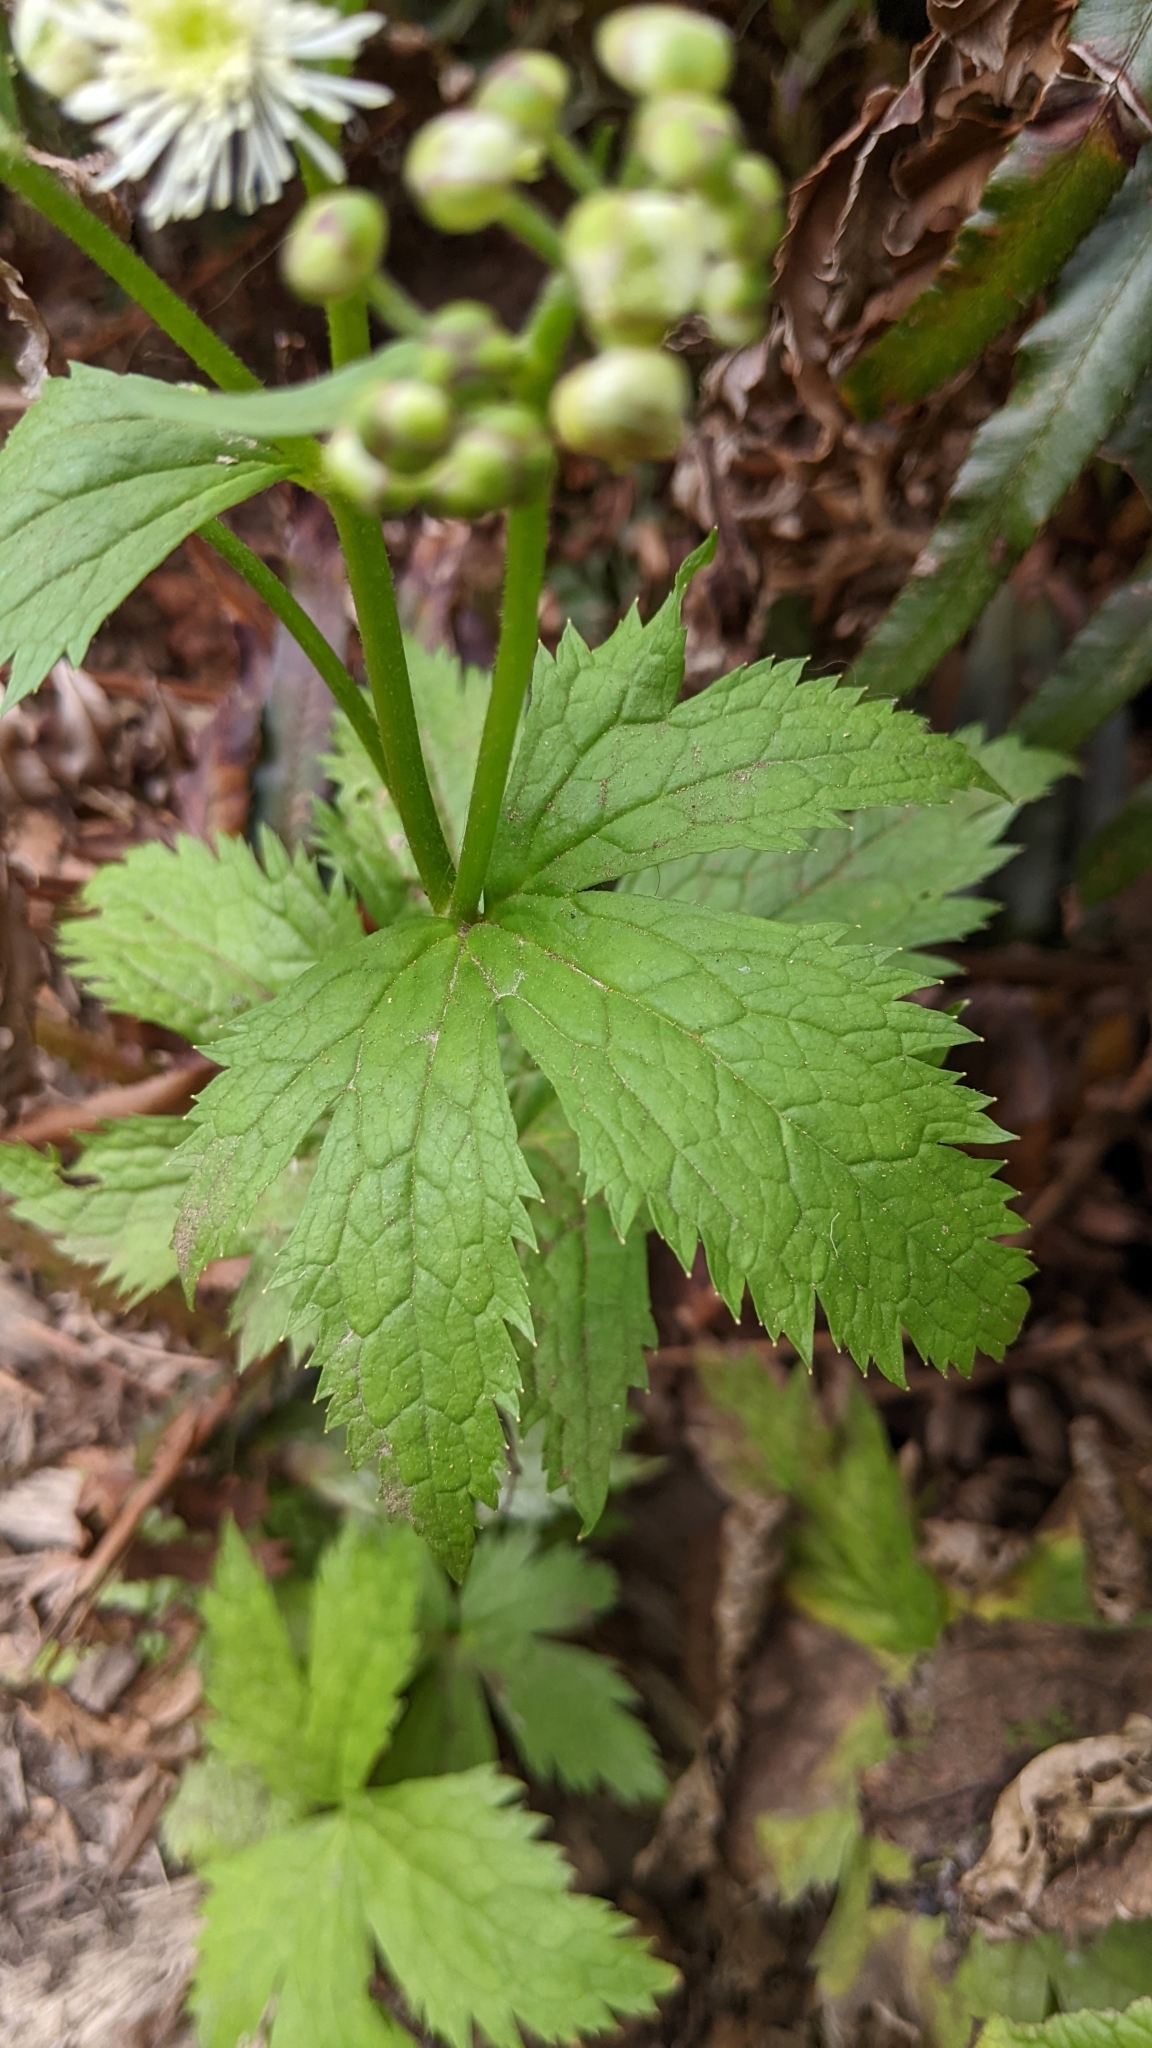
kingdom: Plantae
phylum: Tracheophyta
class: Magnoliopsida
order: Ranunculales
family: Ranunculaceae
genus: Trautvetteria
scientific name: Trautvetteria carolinensis
